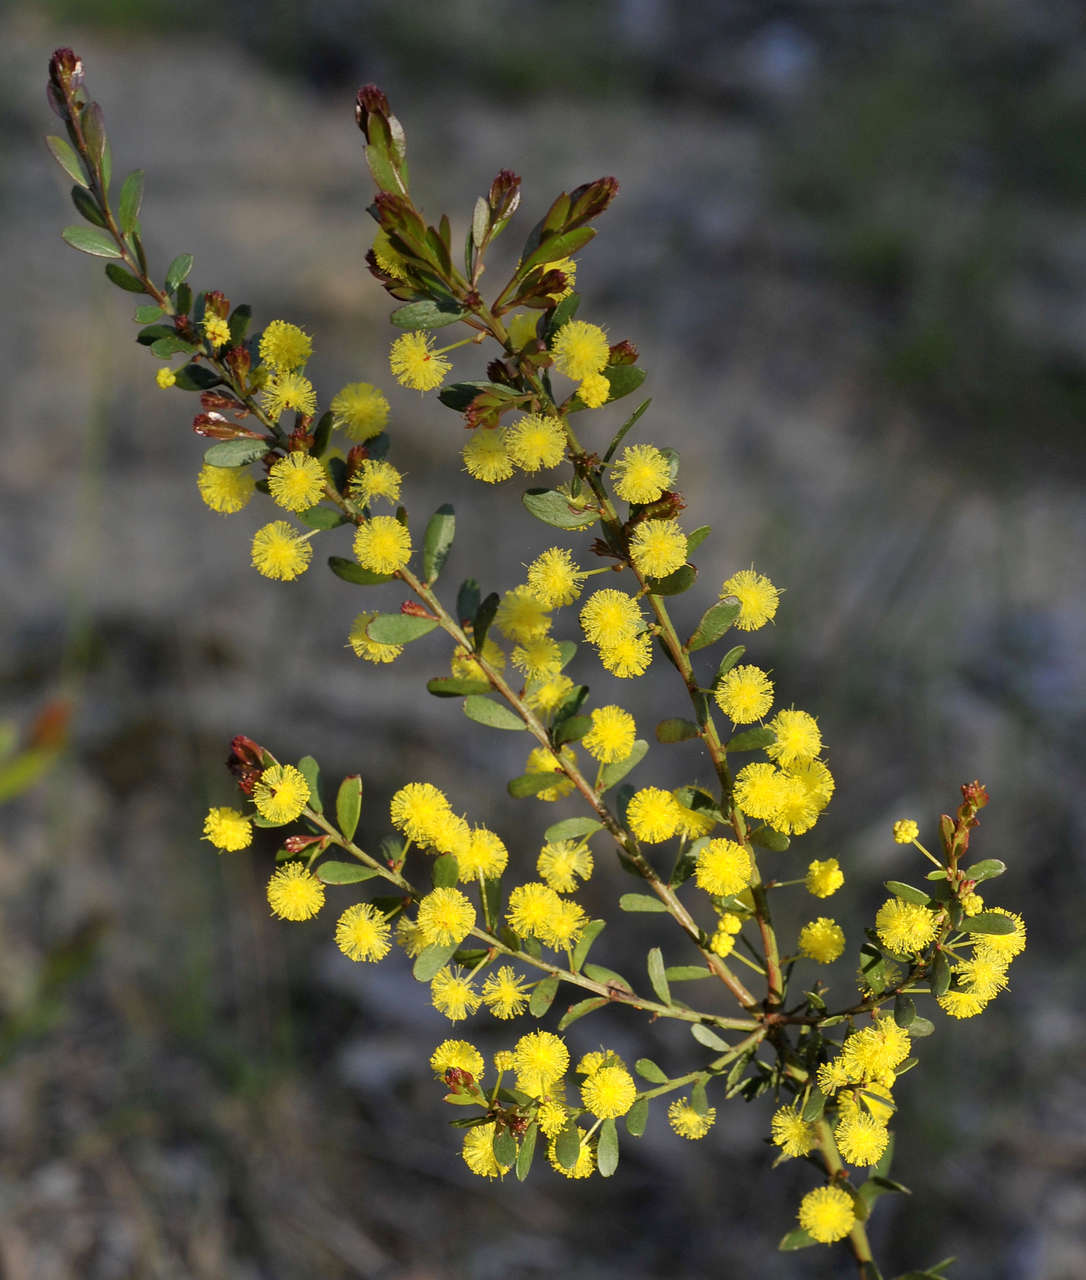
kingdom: Plantae
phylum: Tracheophyta
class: Magnoliopsida
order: Fabales
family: Fabaceae
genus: Acacia
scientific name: Acacia acinacea
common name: Gold-dust acacia
